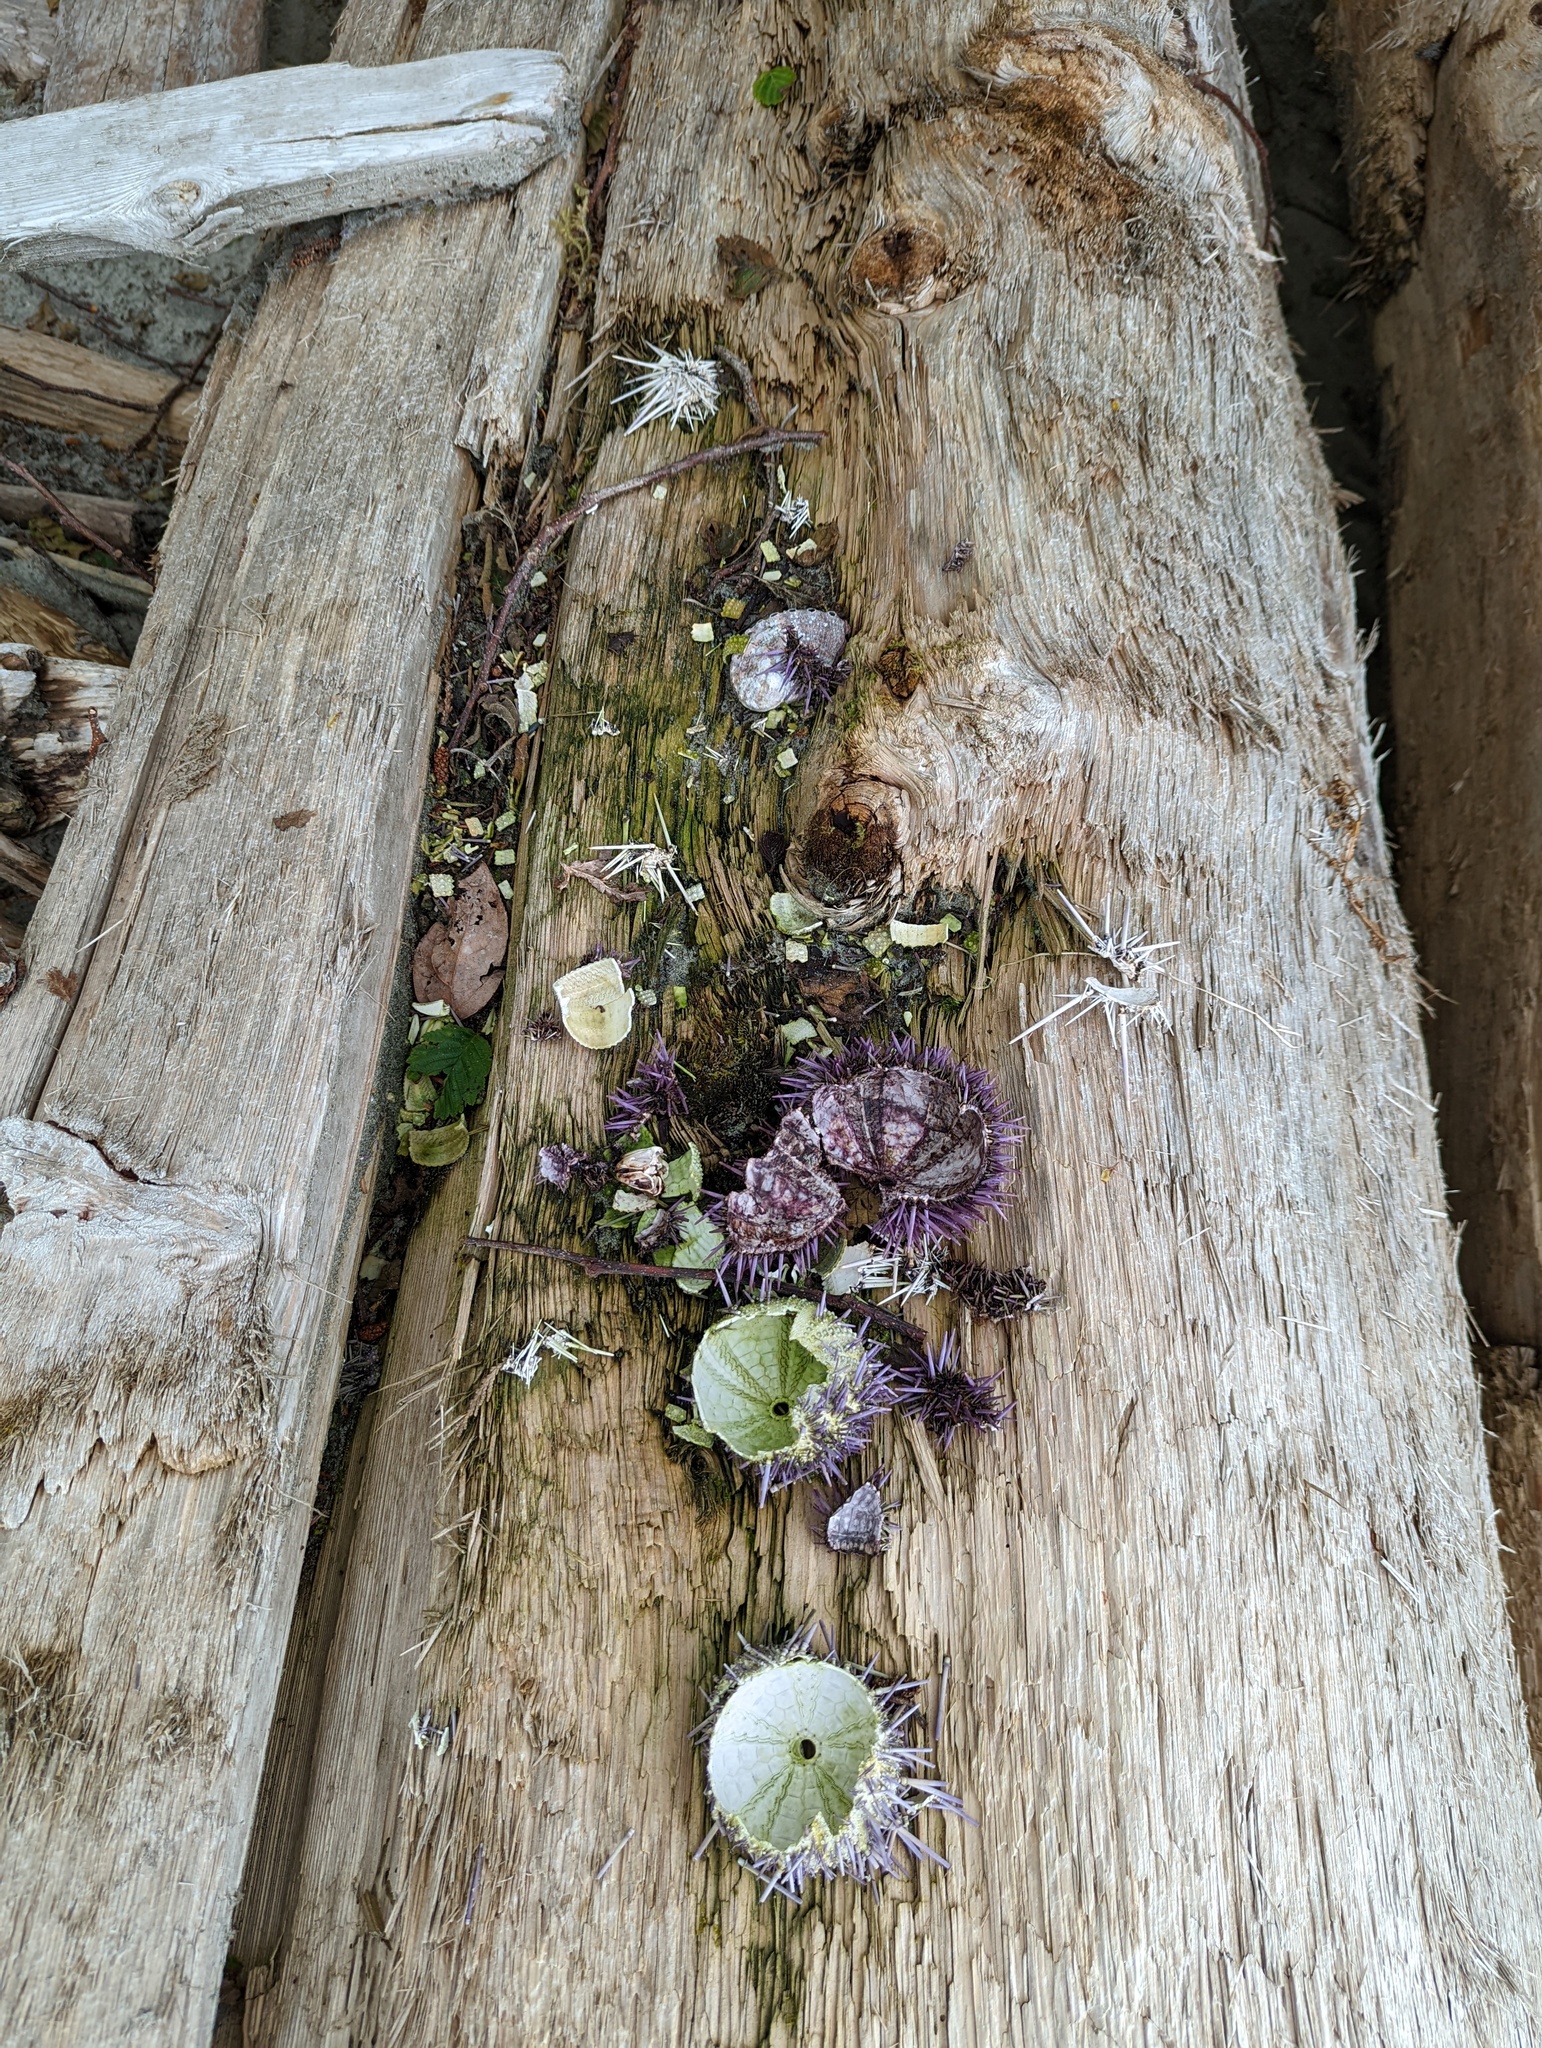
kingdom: Animalia
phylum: Echinodermata
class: Echinoidea
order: Camarodonta
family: Strongylocentrotidae
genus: Strongylocentrotus
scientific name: Strongylocentrotus purpuratus
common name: Purple sea urchin
